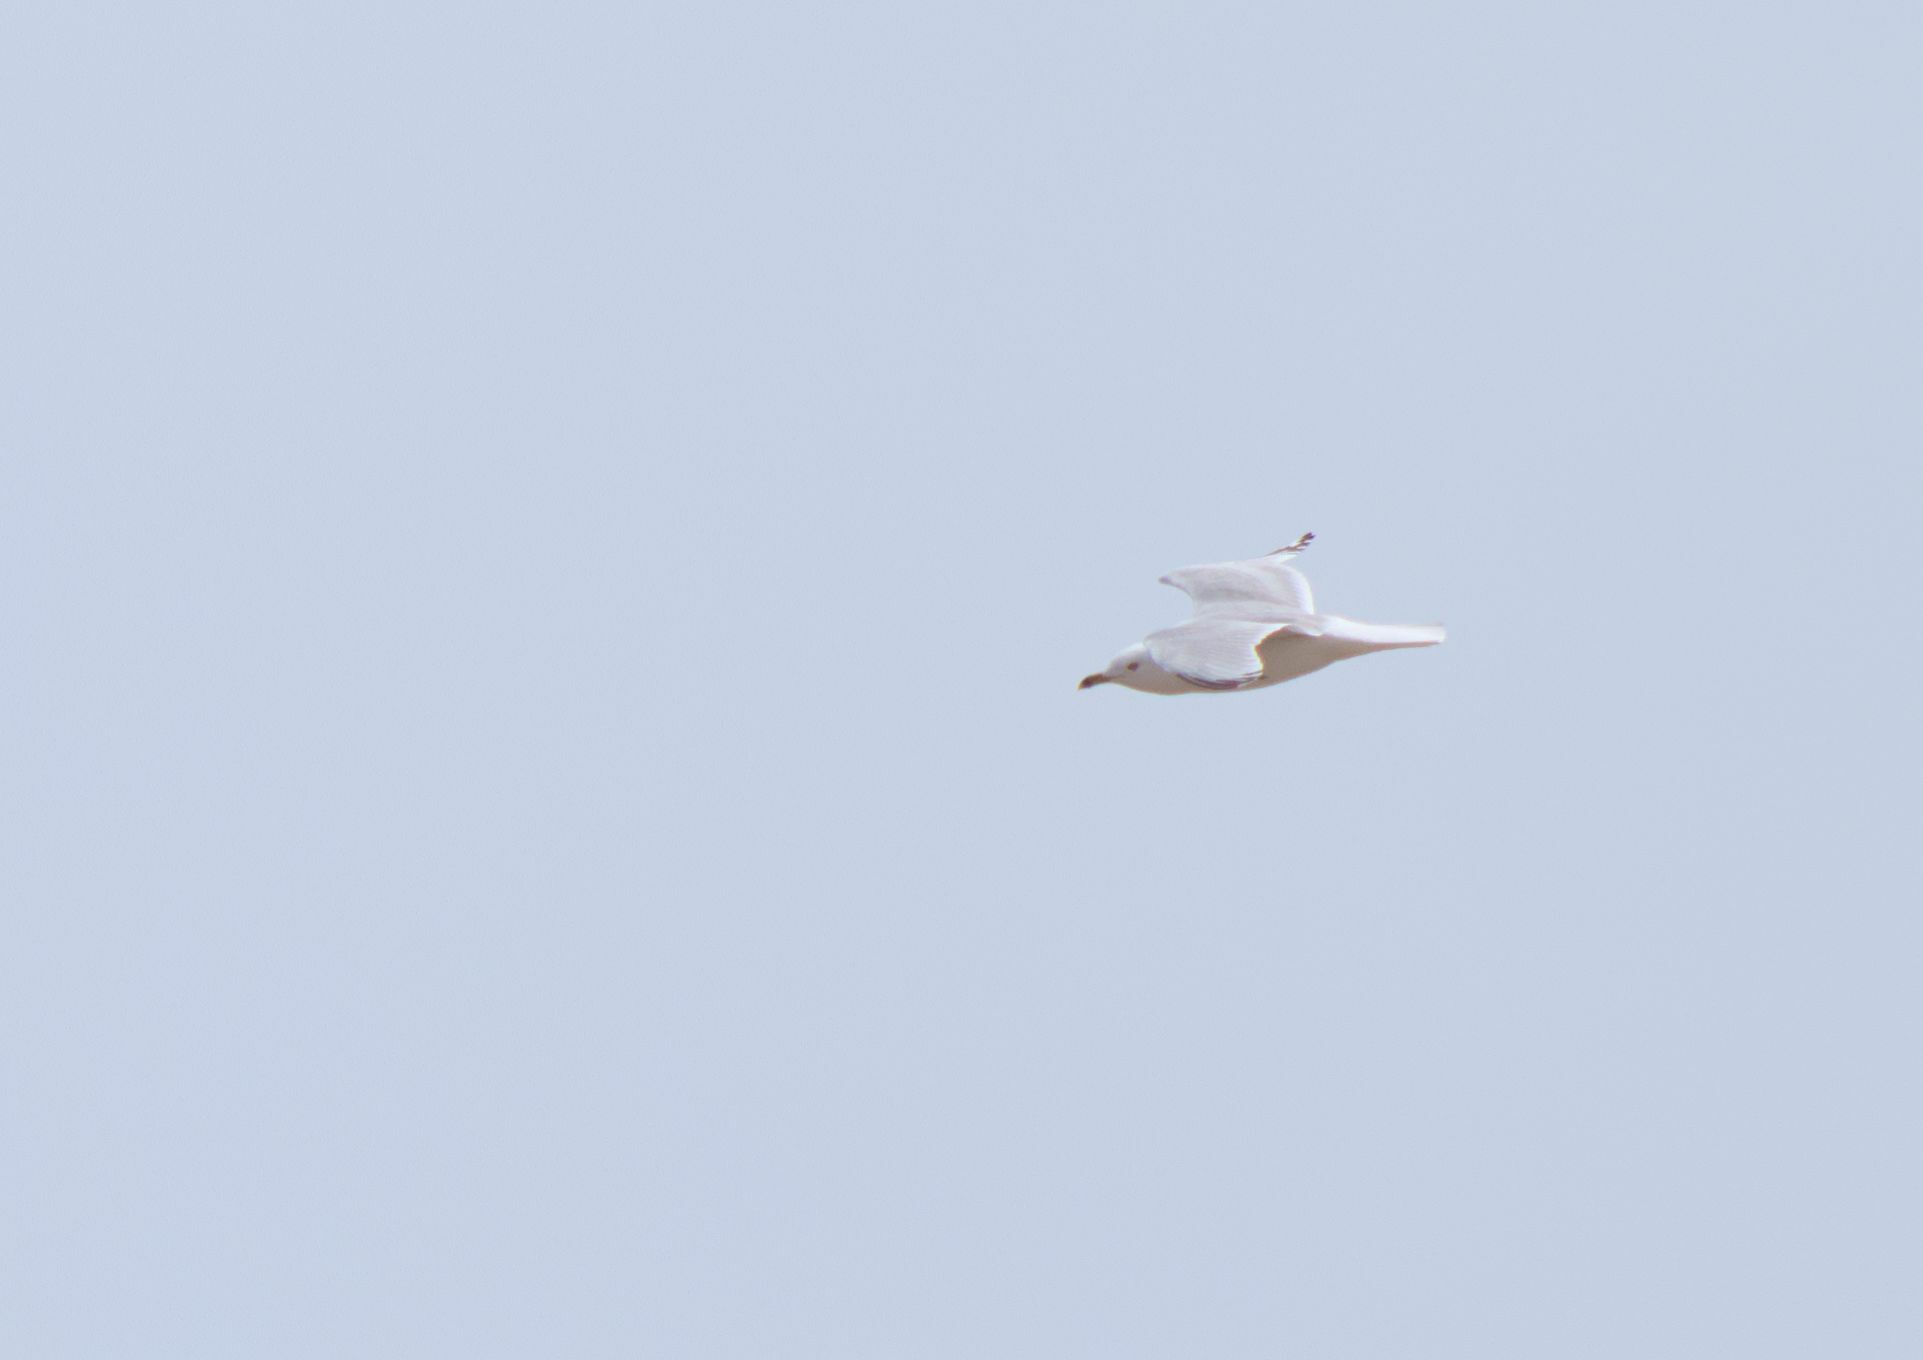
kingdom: Animalia
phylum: Chordata
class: Aves
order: Charadriiformes
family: Laridae
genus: Larus
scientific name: Larus delawarensis
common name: Ring-billed gull
